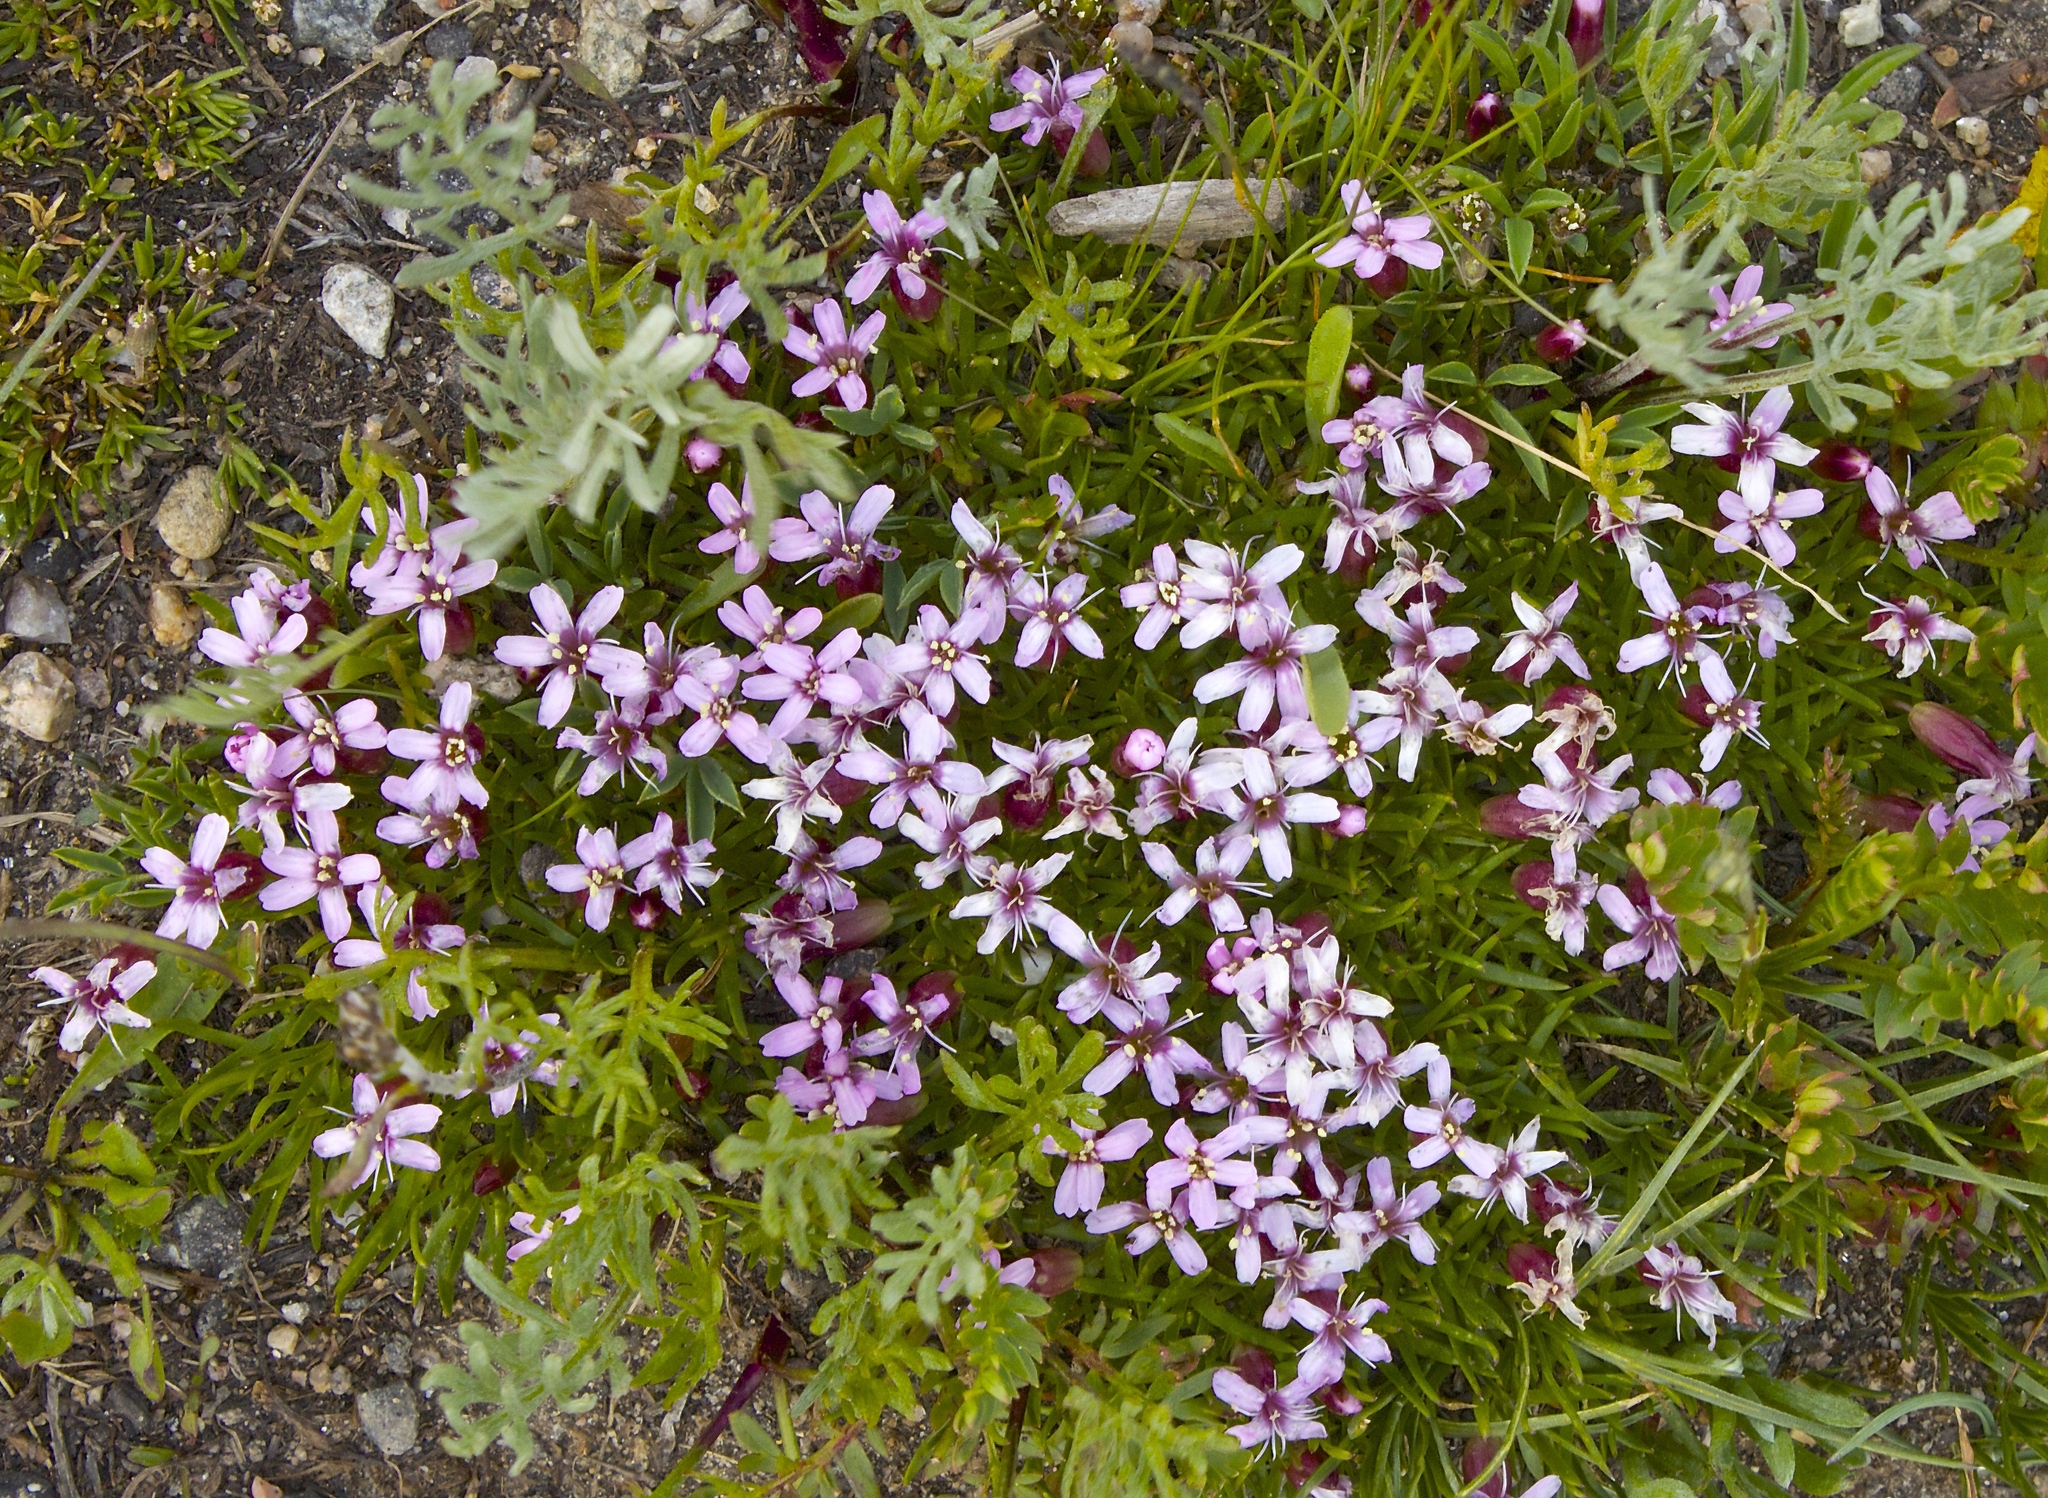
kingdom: Plantae
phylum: Tracheophyta
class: Magnoliopsida
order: Caryophyllales
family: Caryophyllaceae
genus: Silene
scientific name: Silene acaulis
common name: Moss campion
